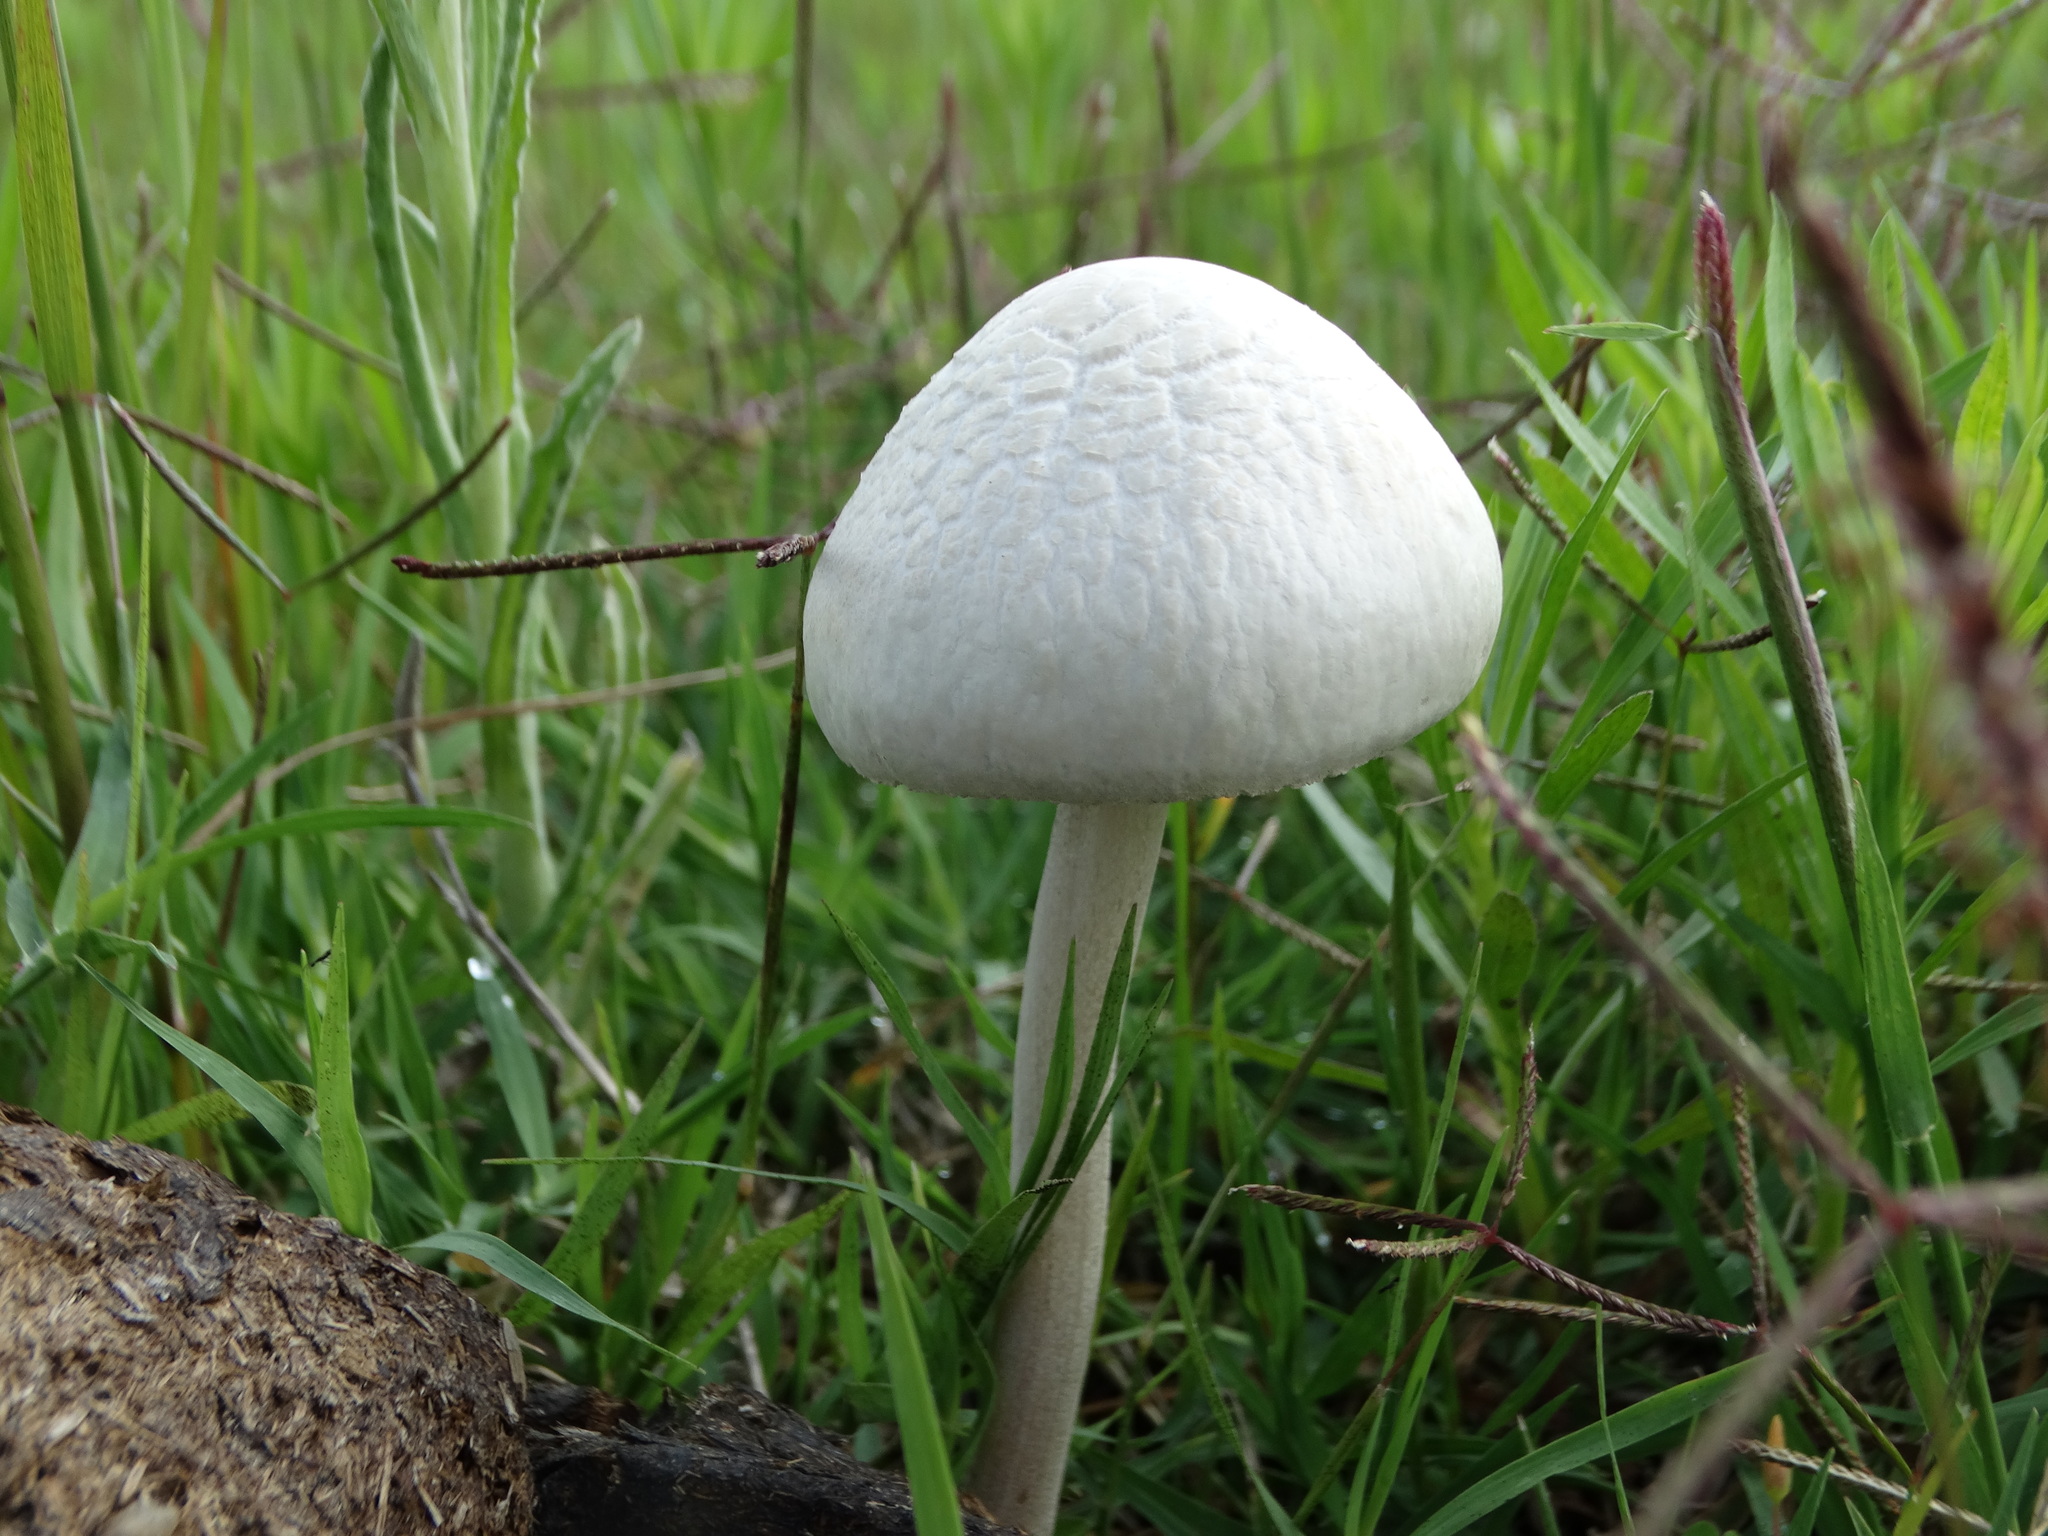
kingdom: Fungi
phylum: Basidiomycota
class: Agaricomycetes
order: Agaricales
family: Bolbitiaceae
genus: Panaeolus
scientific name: Panaeolus antillarum
